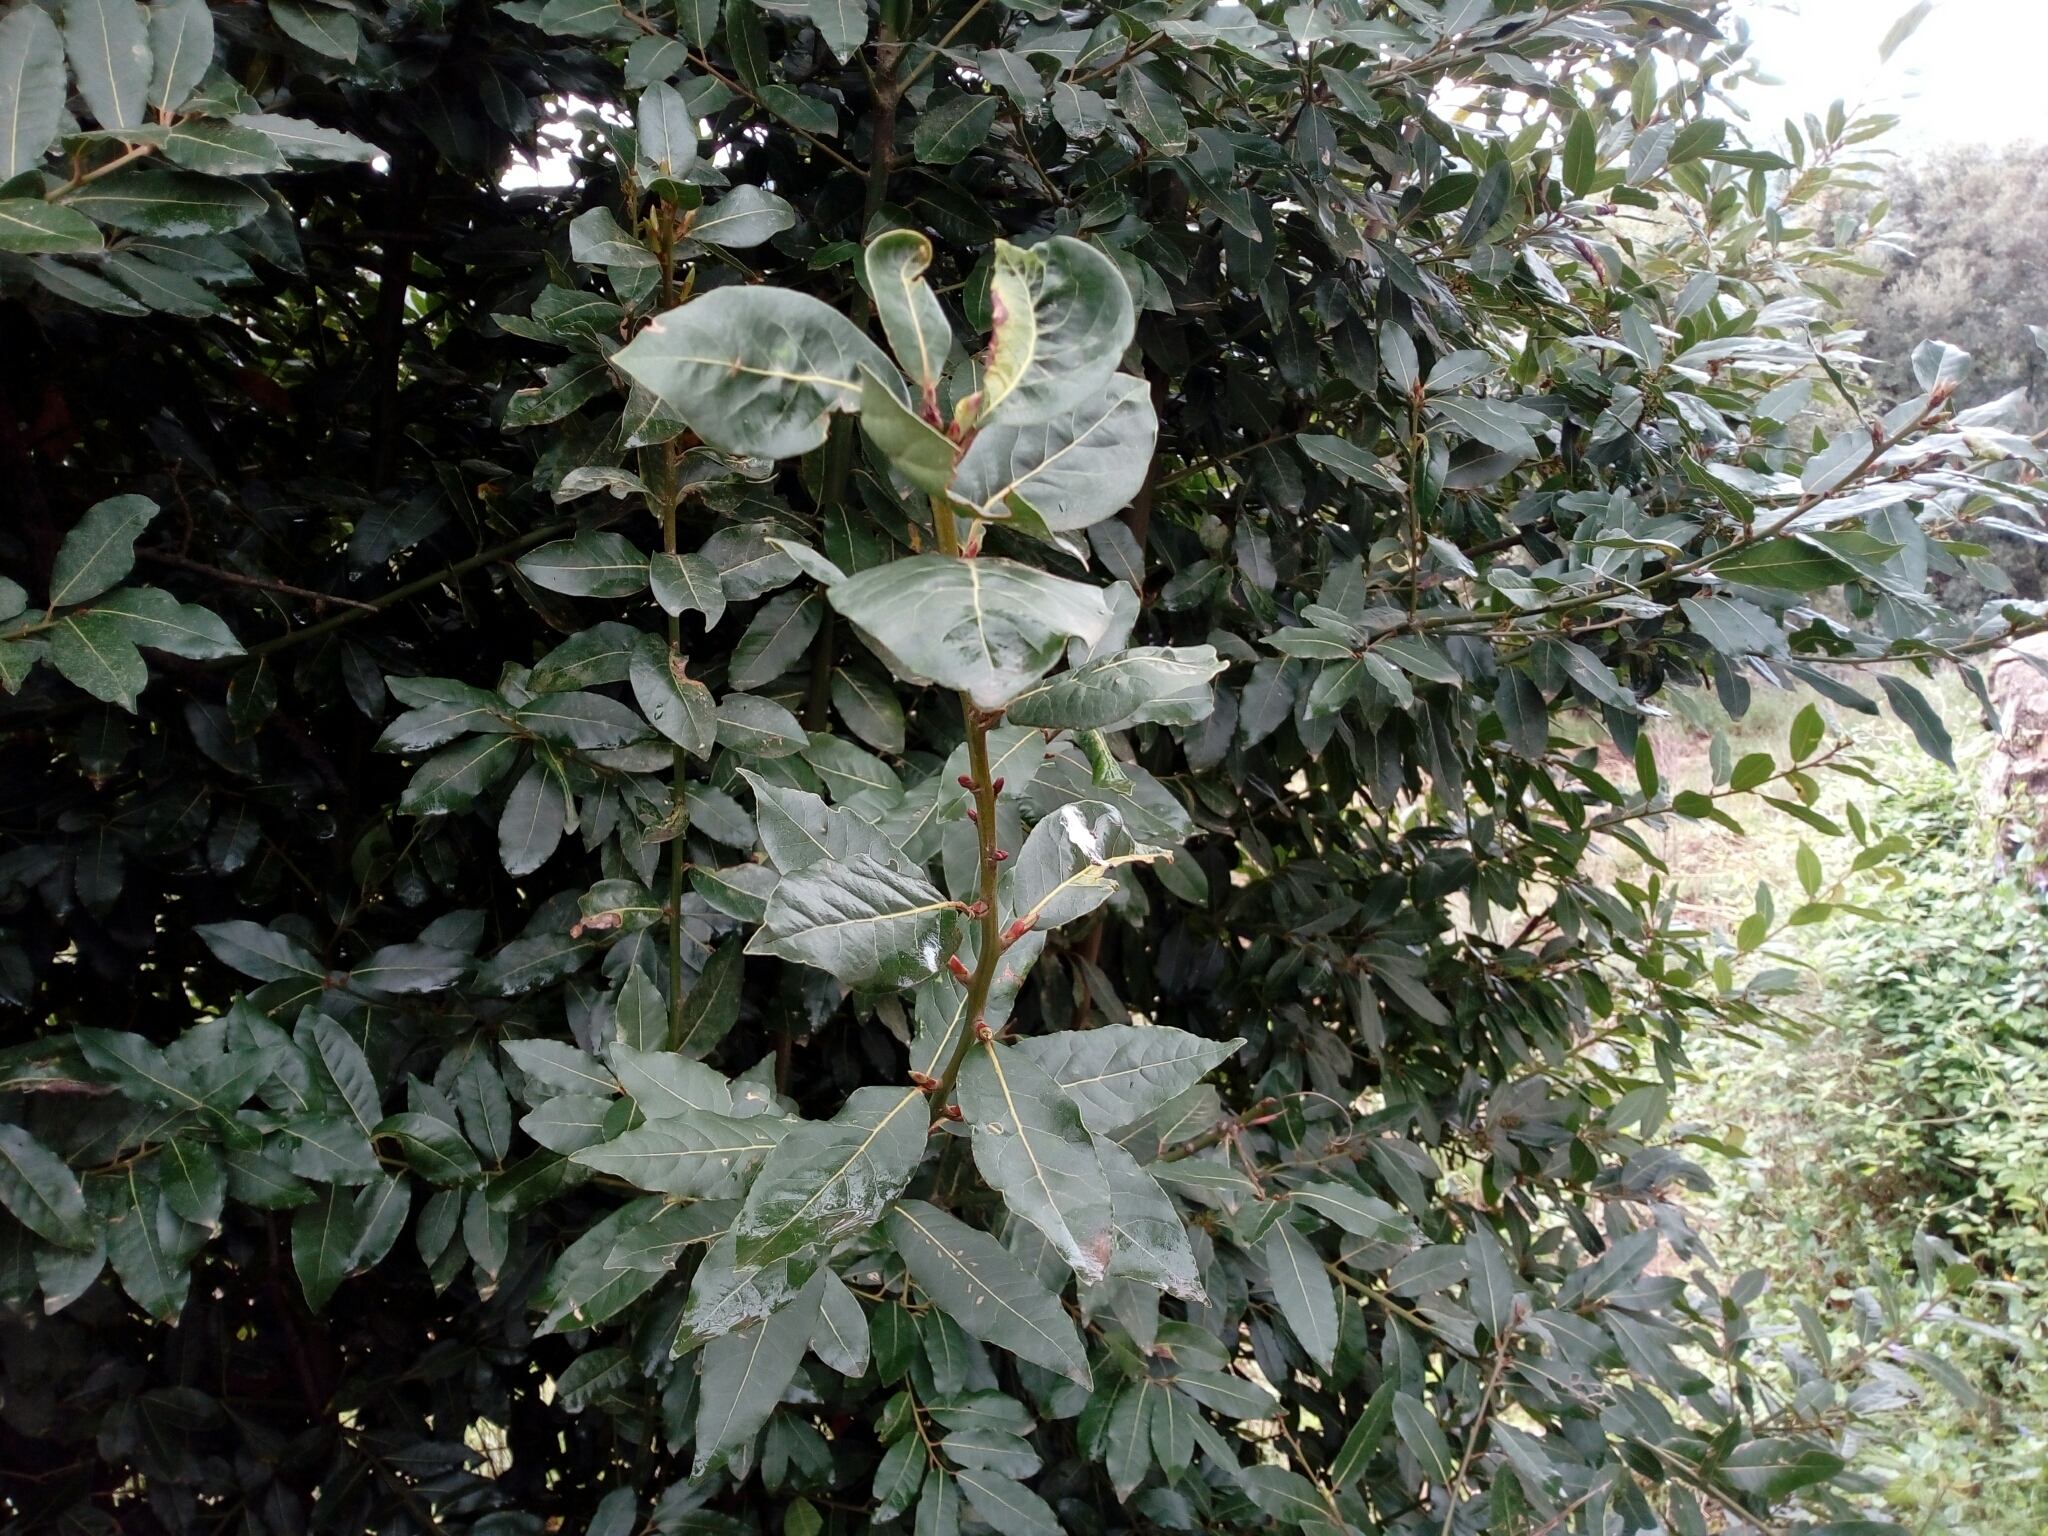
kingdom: Plantae
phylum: Tracheophyta
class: Magnoliopsida
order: Laurales
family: Lauraceae
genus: Laurus
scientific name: Laurus nobilis
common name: Bay
